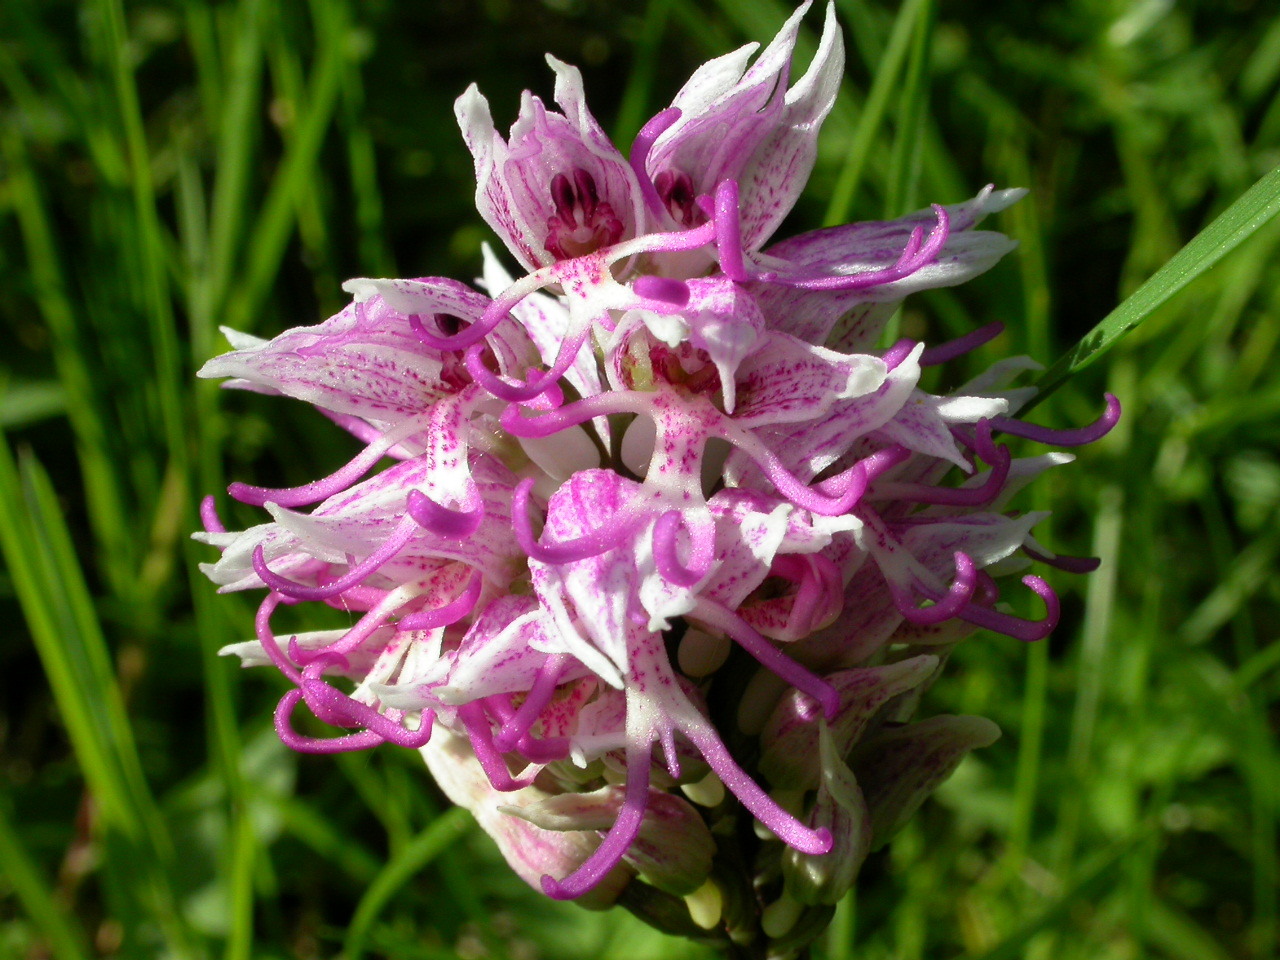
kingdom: Plantae
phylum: Tracheophyta
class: Liliopsida
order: Asparagales
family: Orchidaceae
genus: Orchis
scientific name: Orchis simia
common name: Monkey orchid
